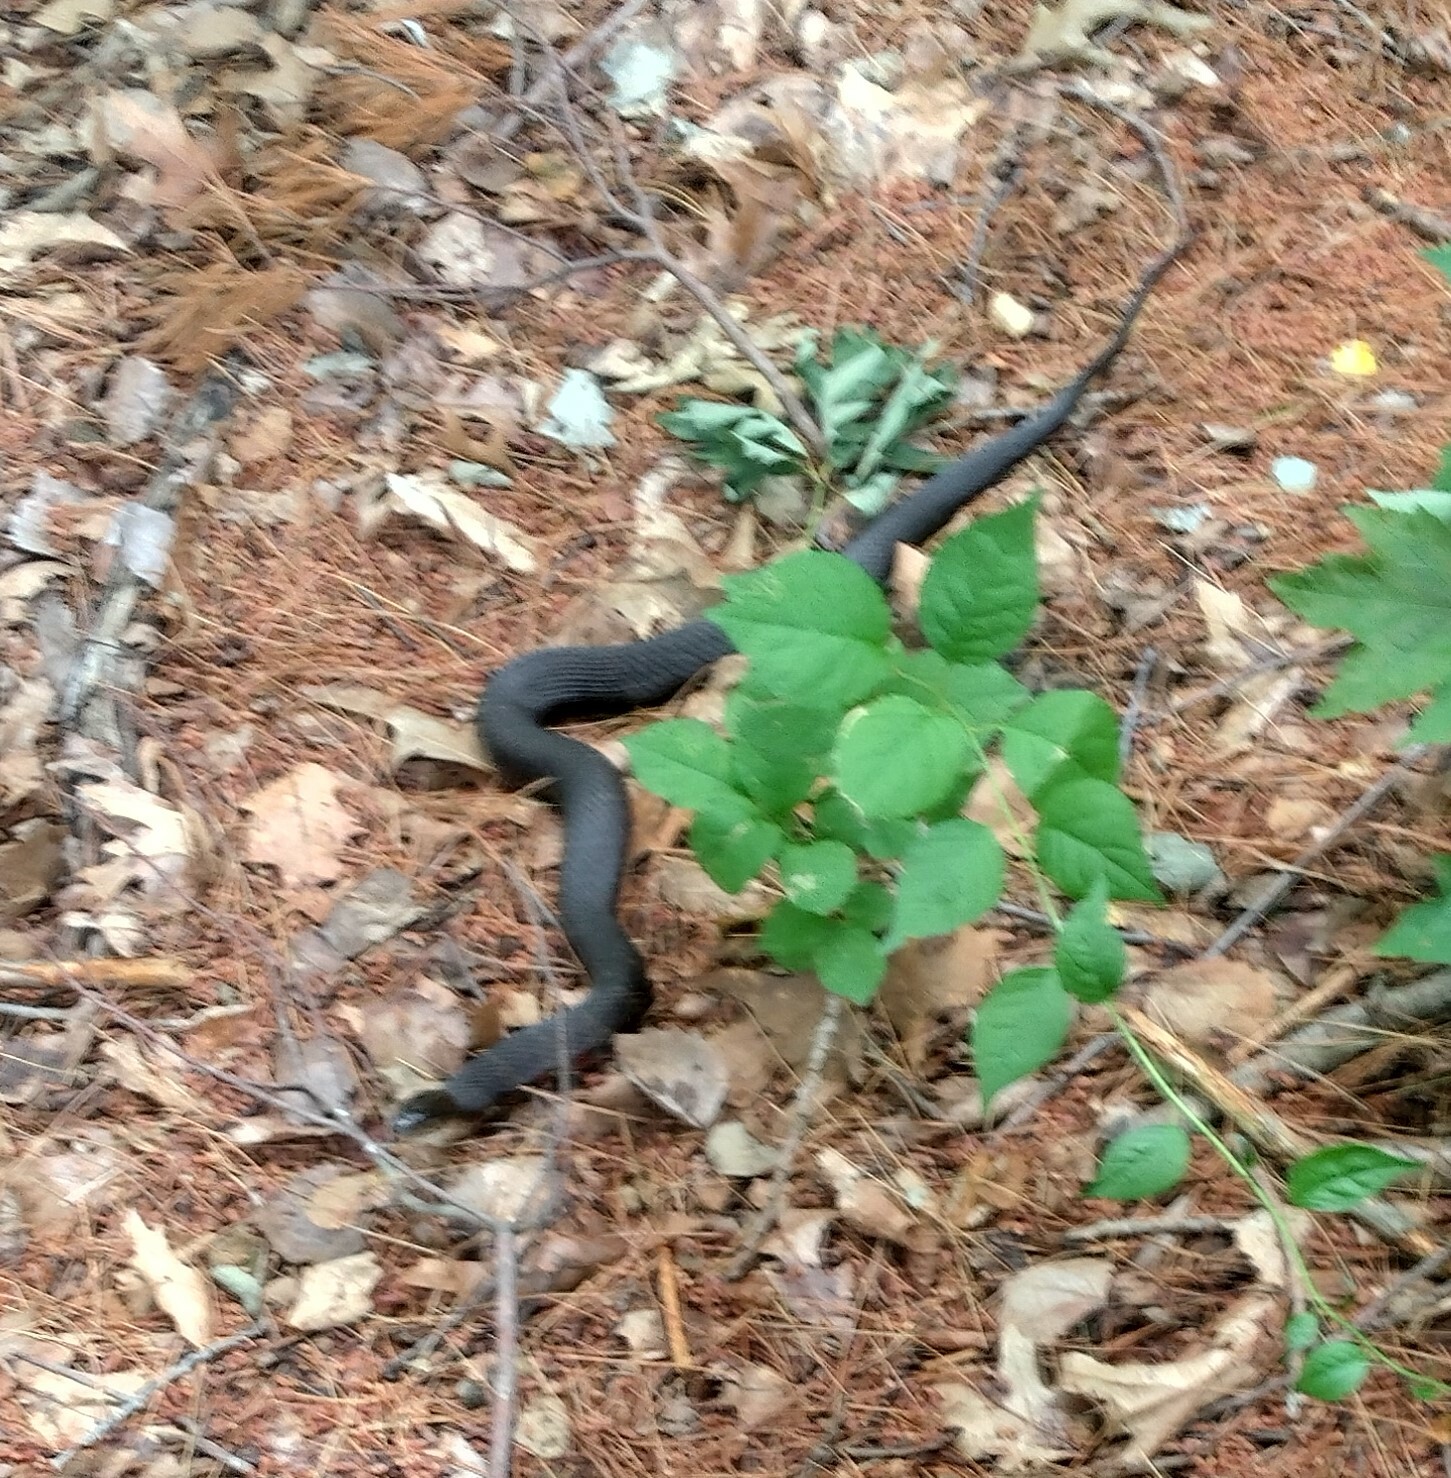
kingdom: Animalia
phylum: Chordata
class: Squamata
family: Colubridae
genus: Nerodia
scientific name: Nerodia sipedon
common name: Northern water snake
